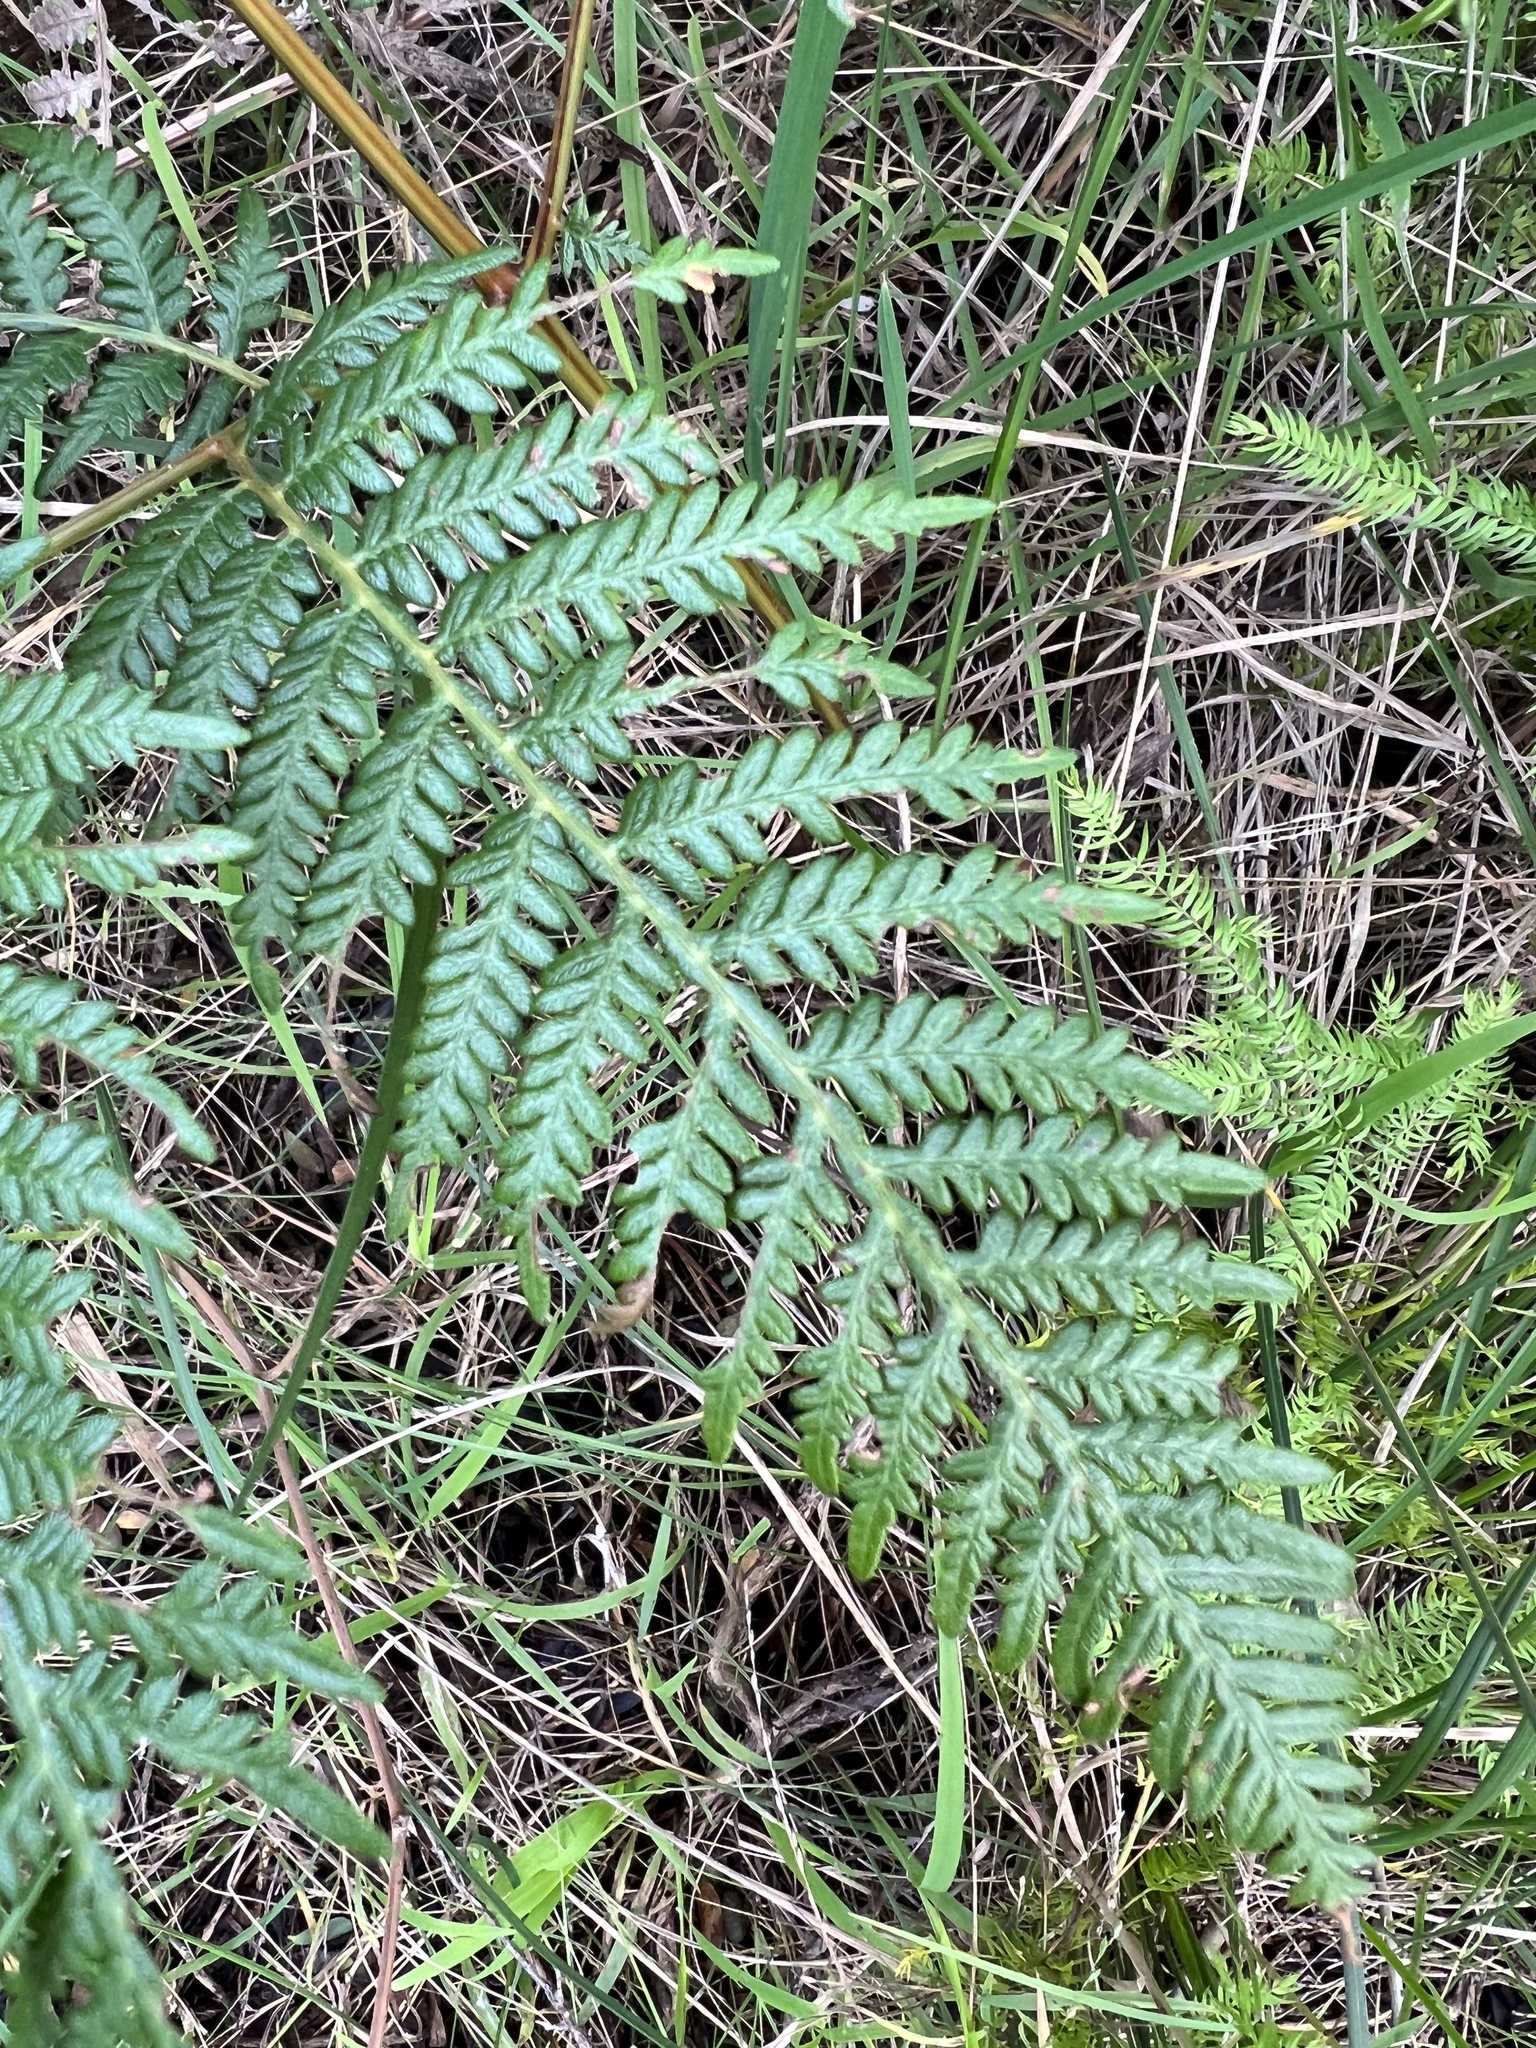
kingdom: Plantae
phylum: Tracheophyta
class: Polypodiopsida
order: Polypodiales
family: Dennstaedtiaceae
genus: Pteridium
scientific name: Pteridium esculentum
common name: Bracken fern
